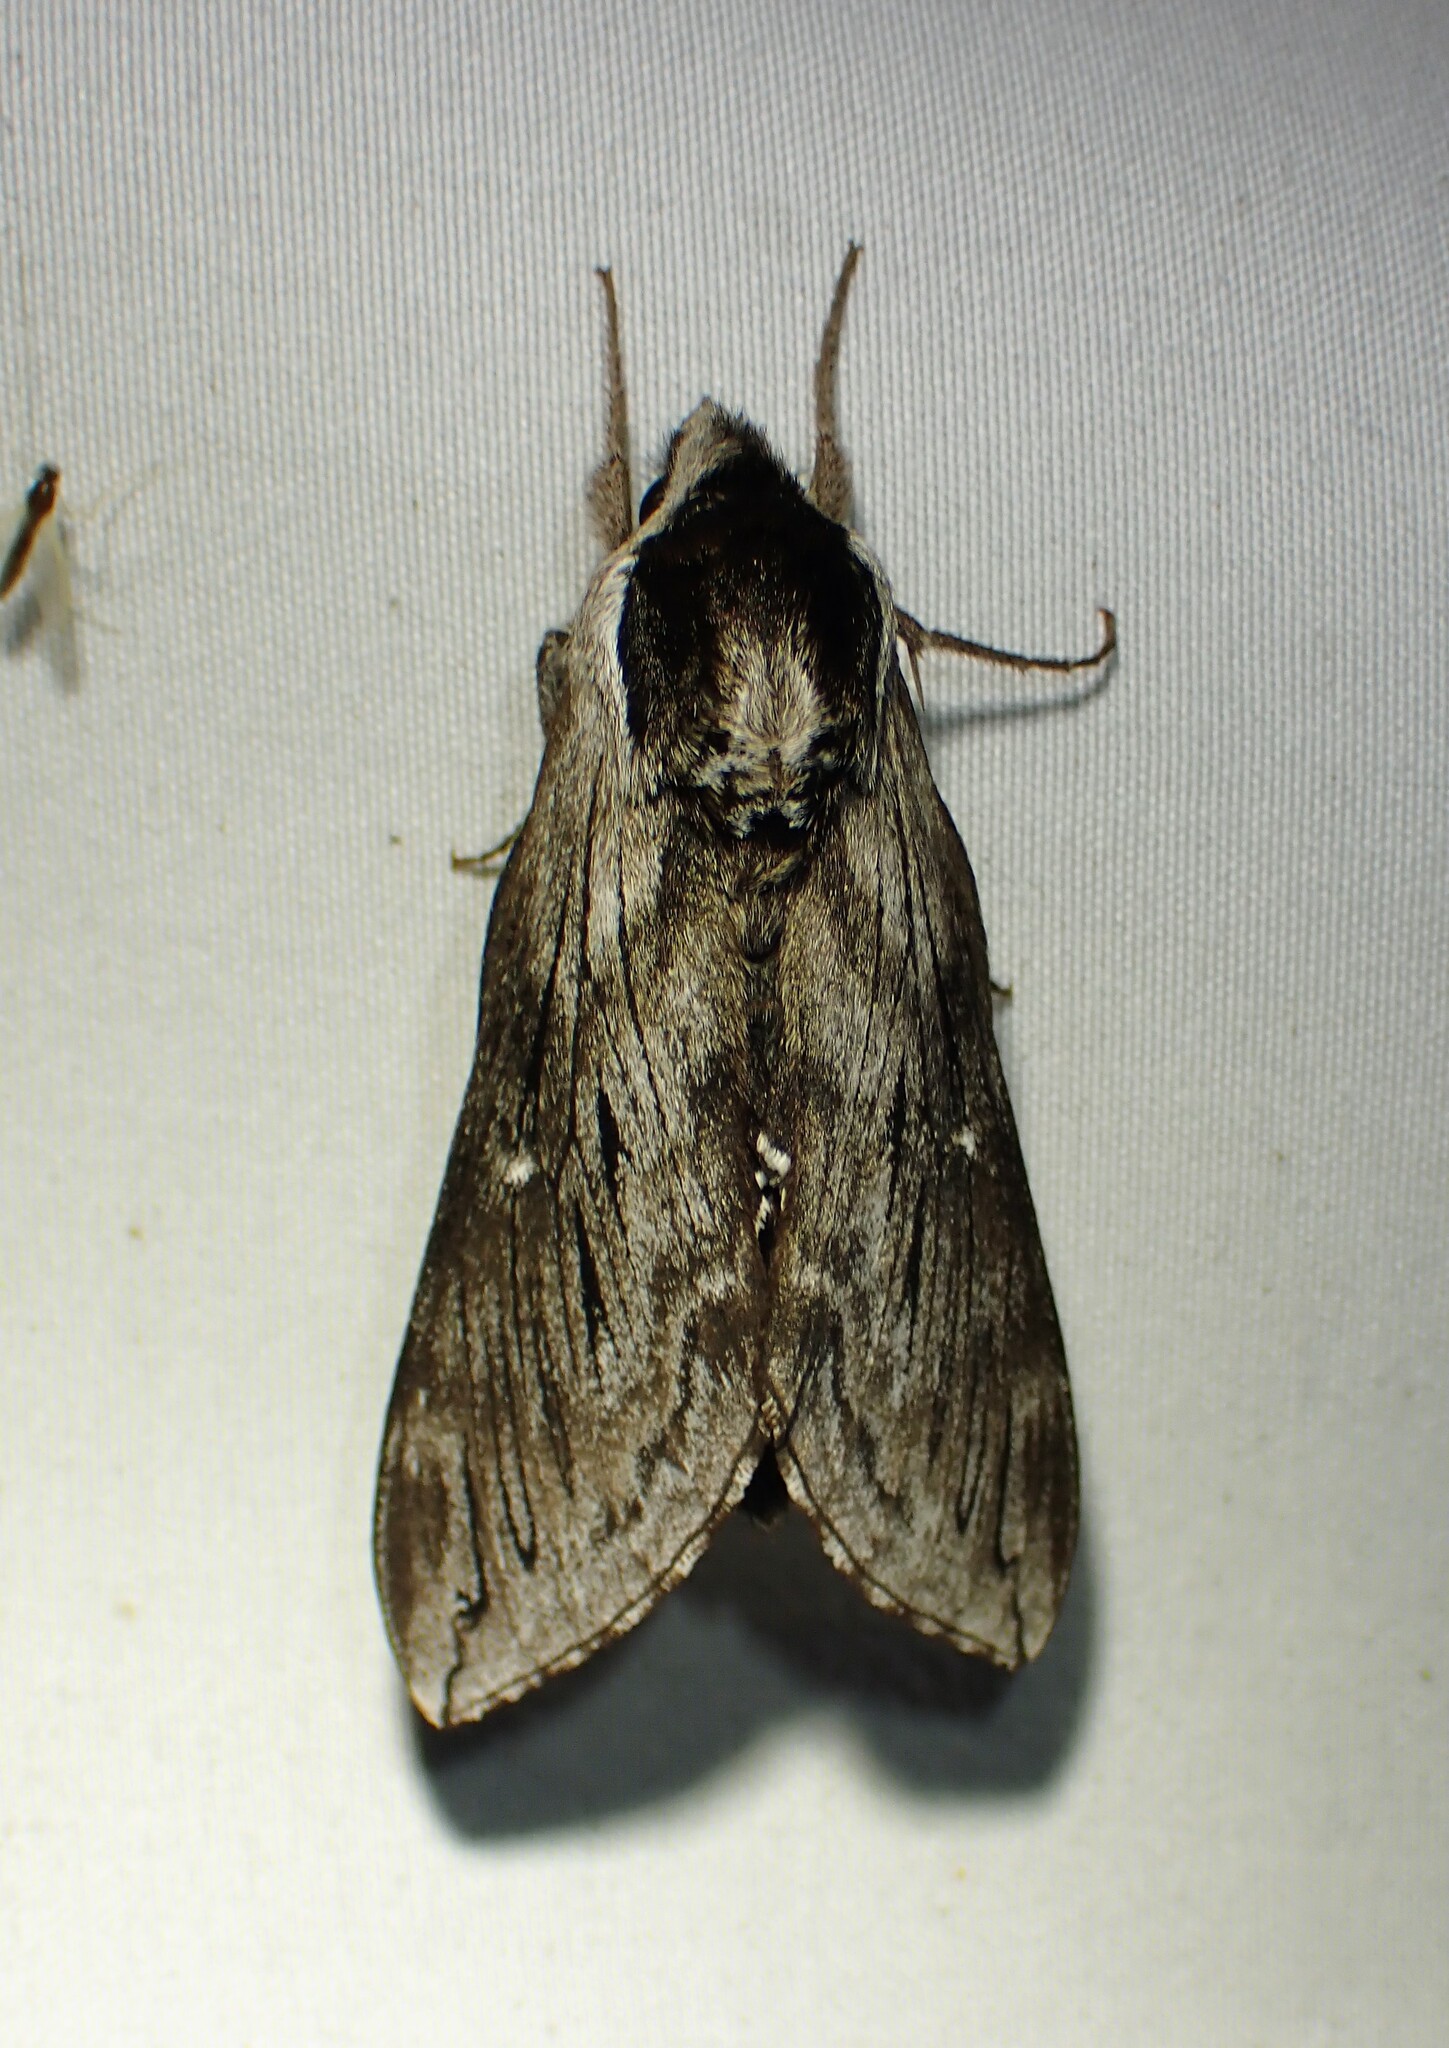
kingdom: Animalia
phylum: Arthropoda
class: Insecta
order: Lepidoptera
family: Sphingidae
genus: Sphinx
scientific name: Sphinx poecila
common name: Northern apple sphinx
